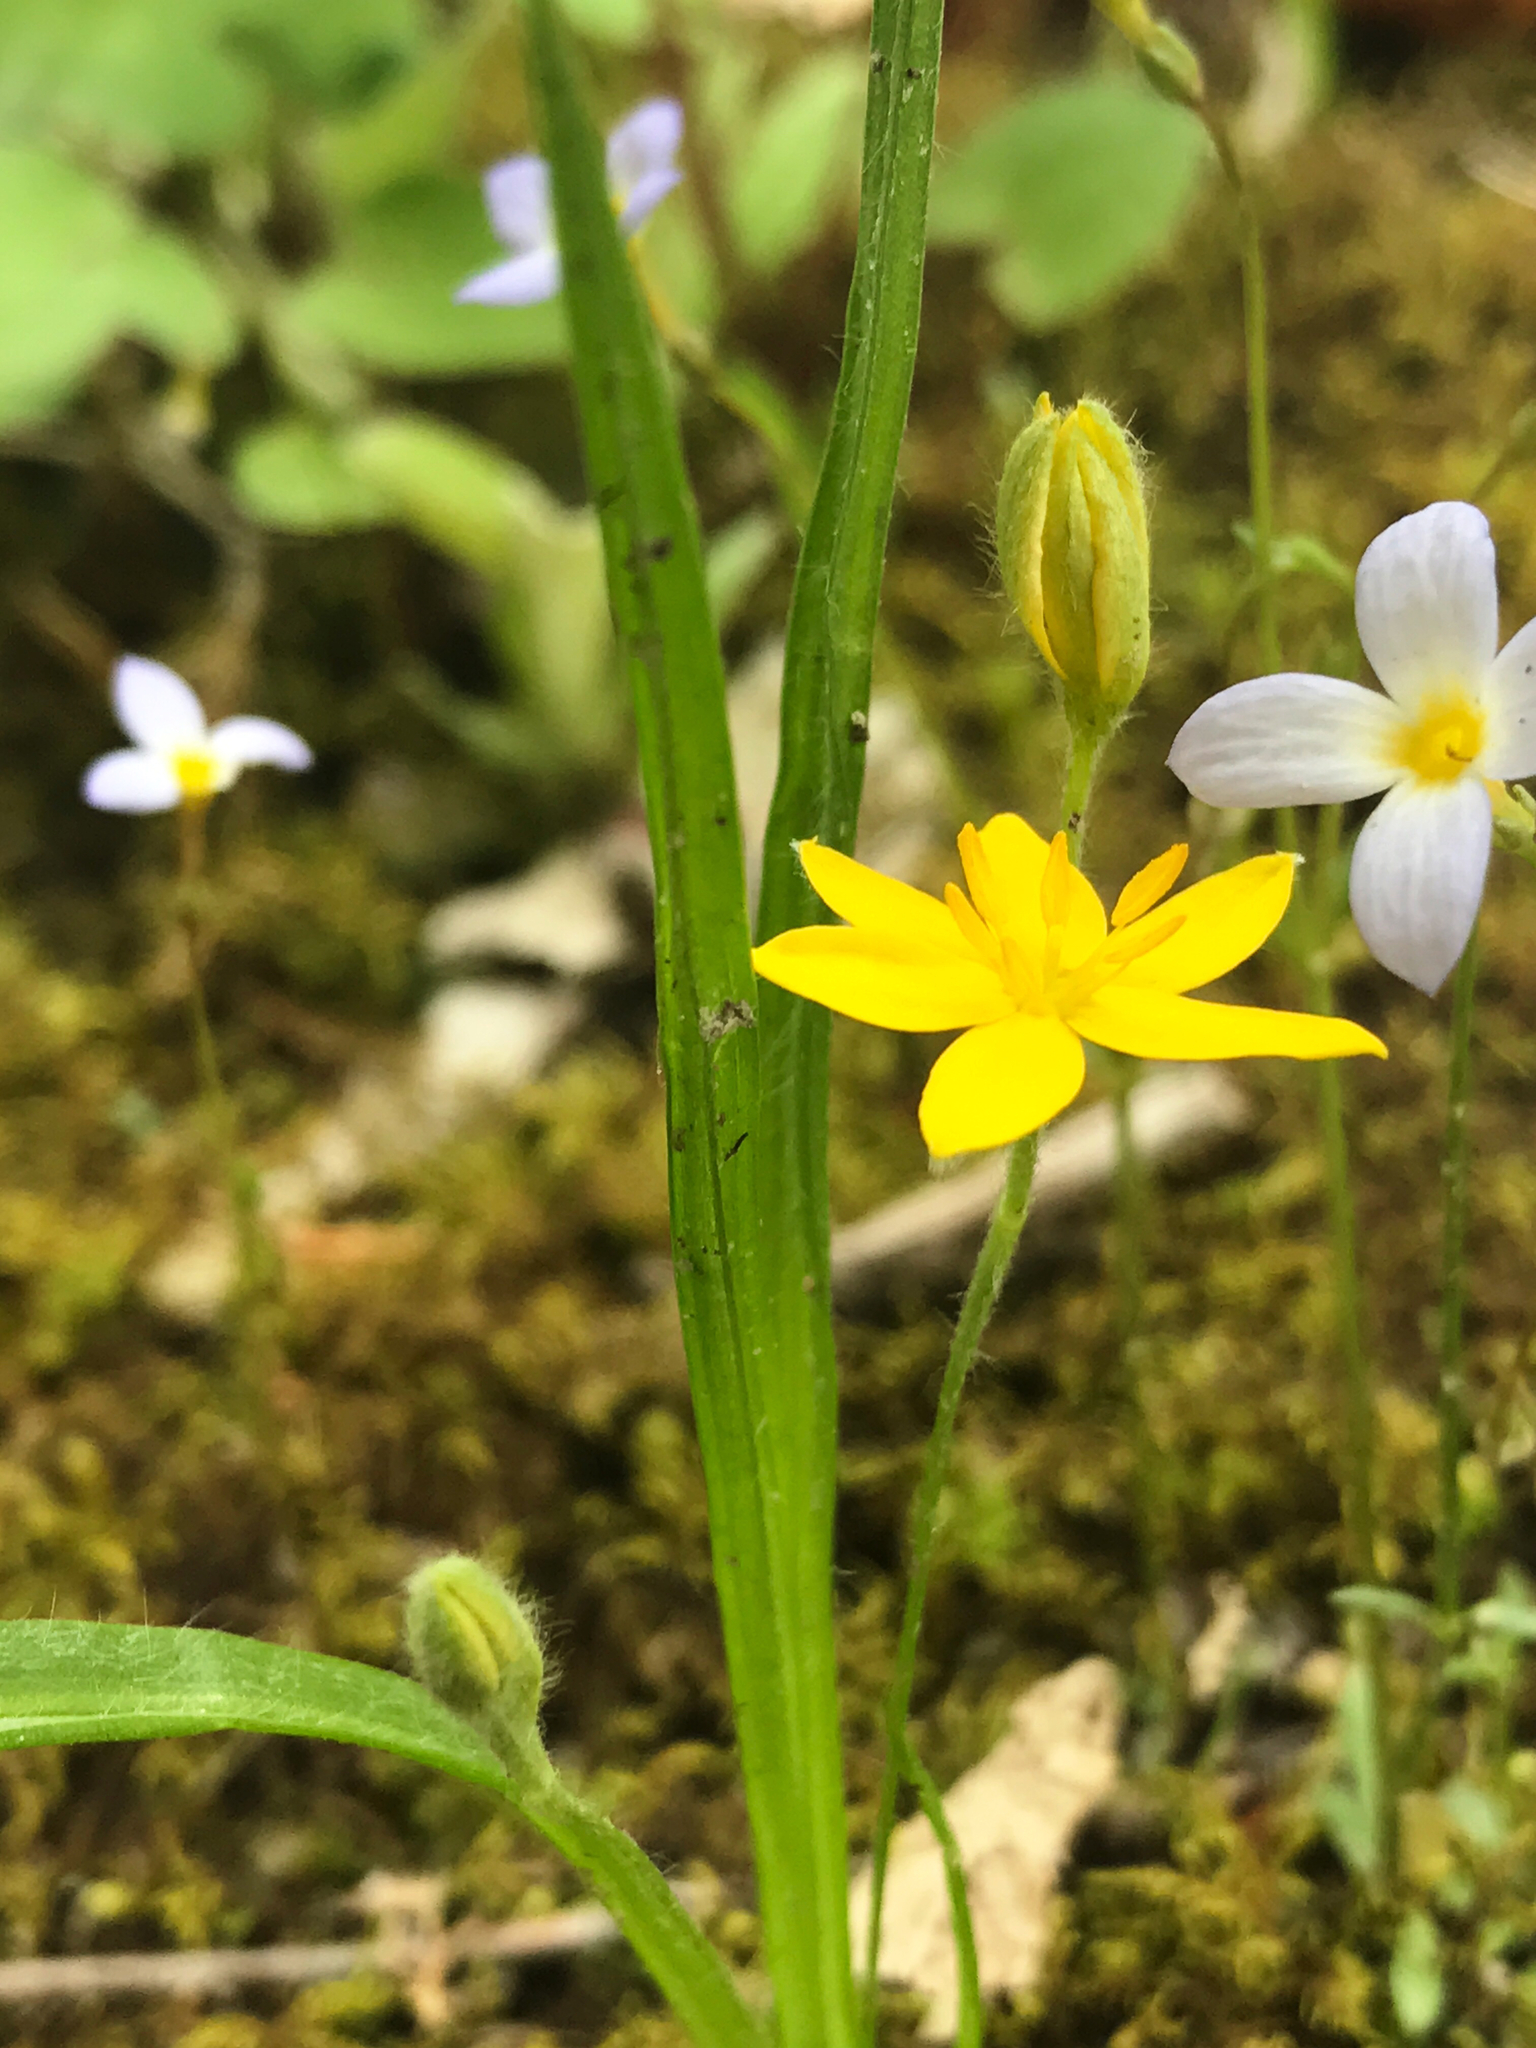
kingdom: Plantae
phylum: Tracheophyta
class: Liliopsida
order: Asparagales
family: Hypoxidaceae
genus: Hypoxis
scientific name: Hypoxis hirsuta
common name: Common goldstar
